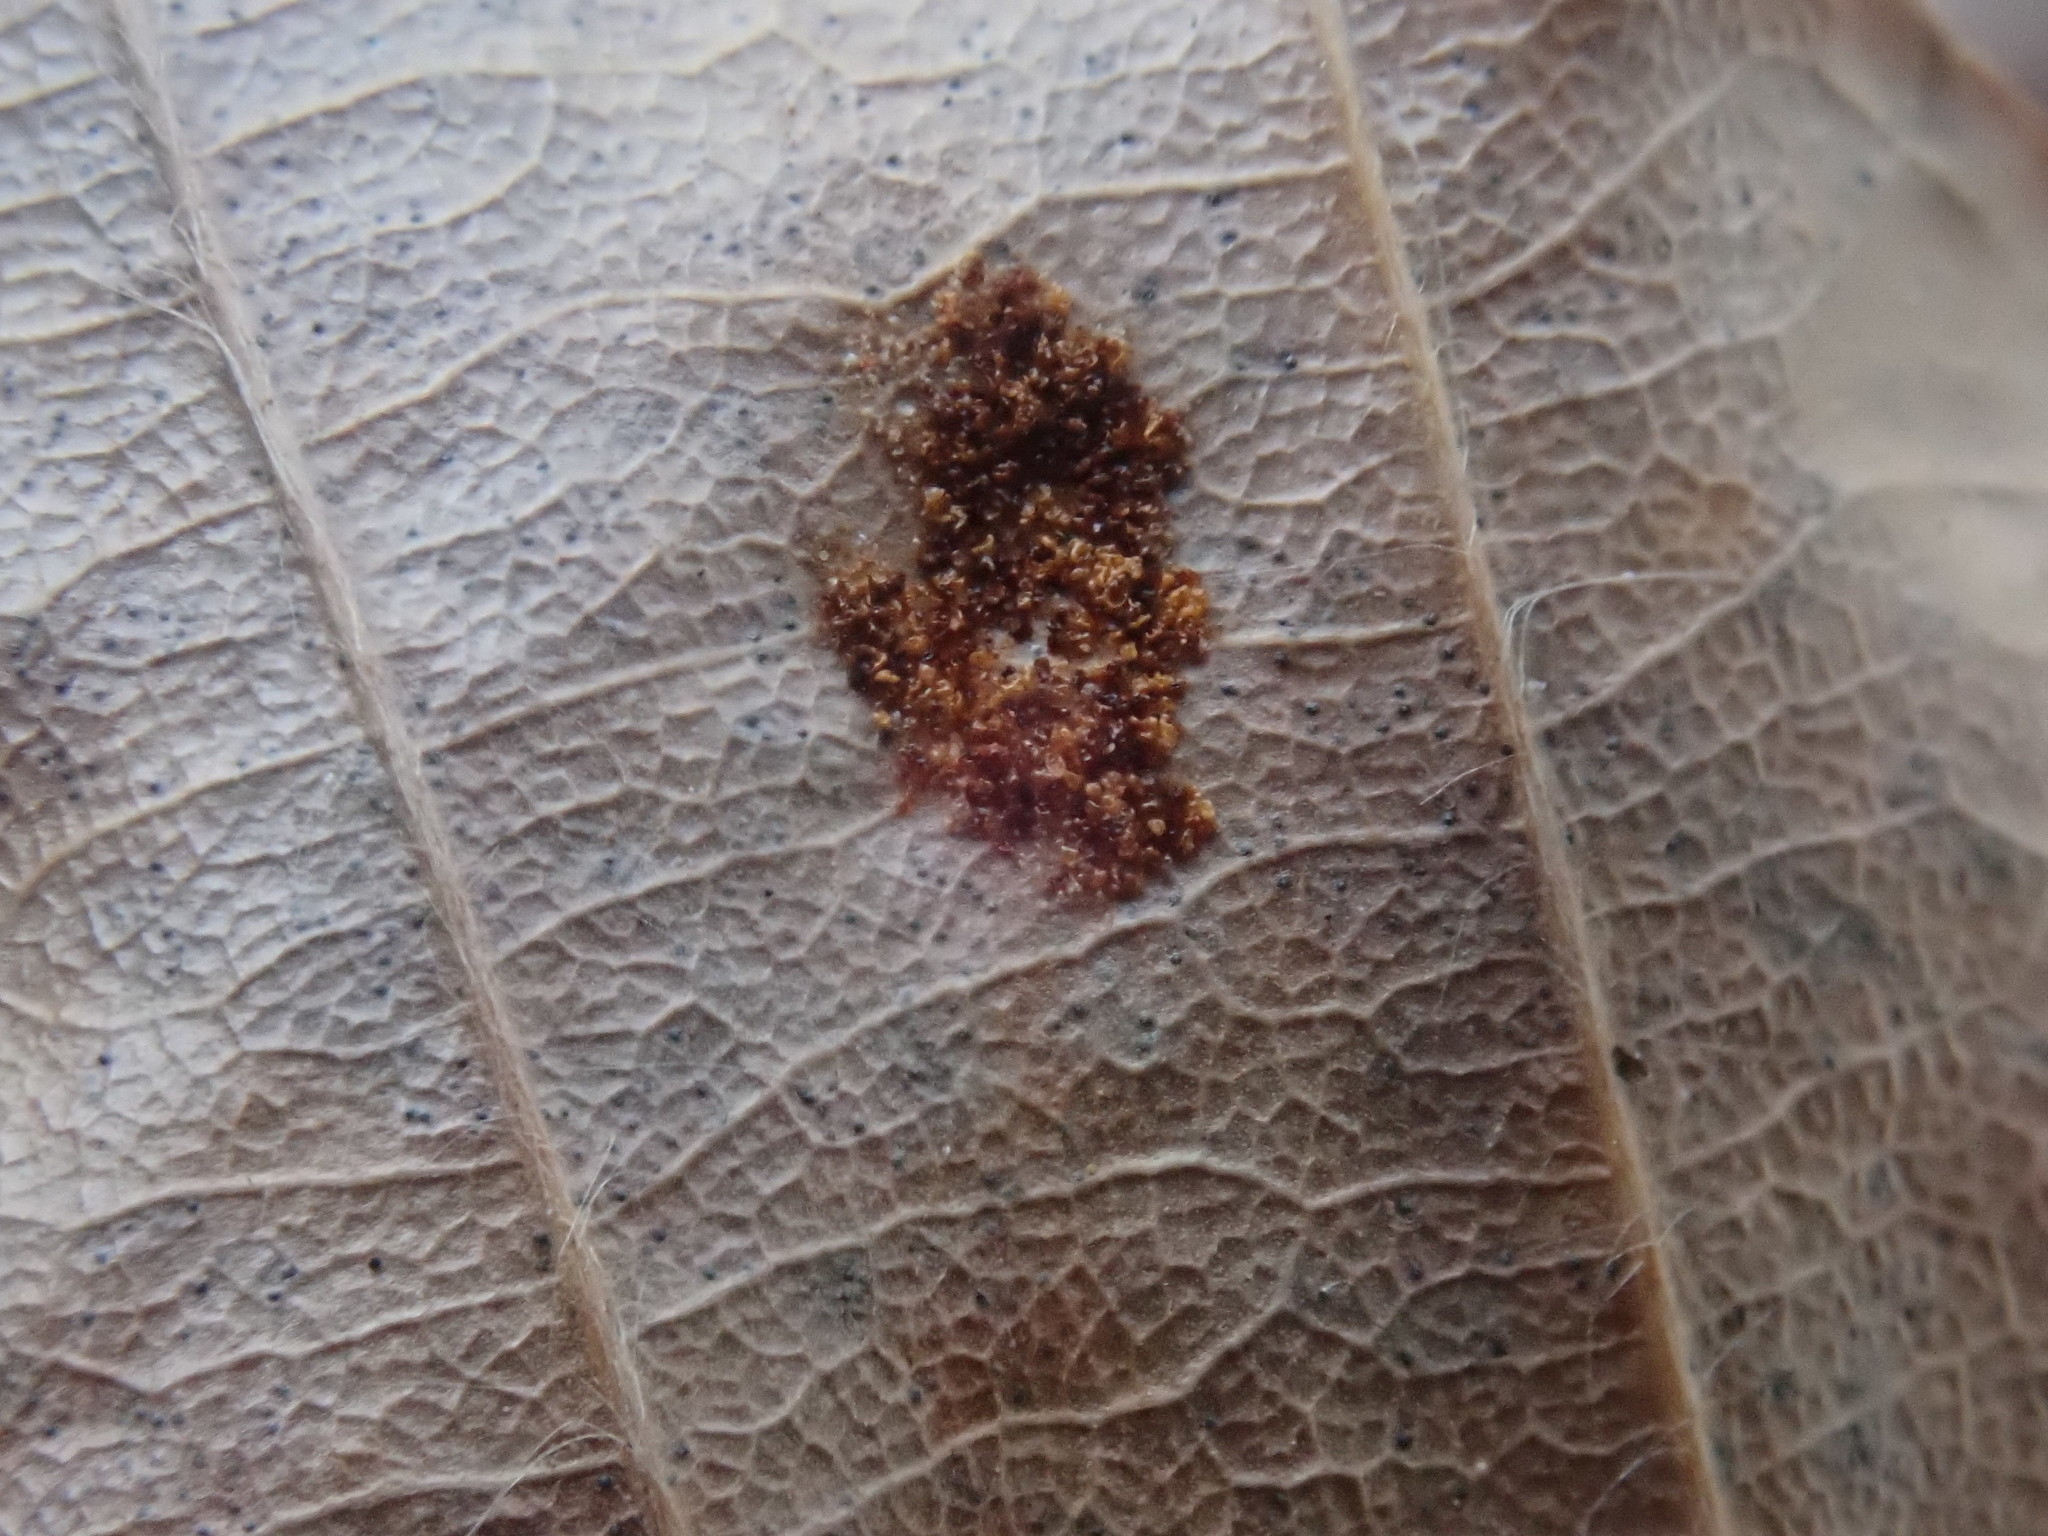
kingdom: Animalia
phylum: Arthropoda
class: Arachnida
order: Trombidiformes
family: Eriophyidae
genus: Acalitus
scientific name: Acalitus
